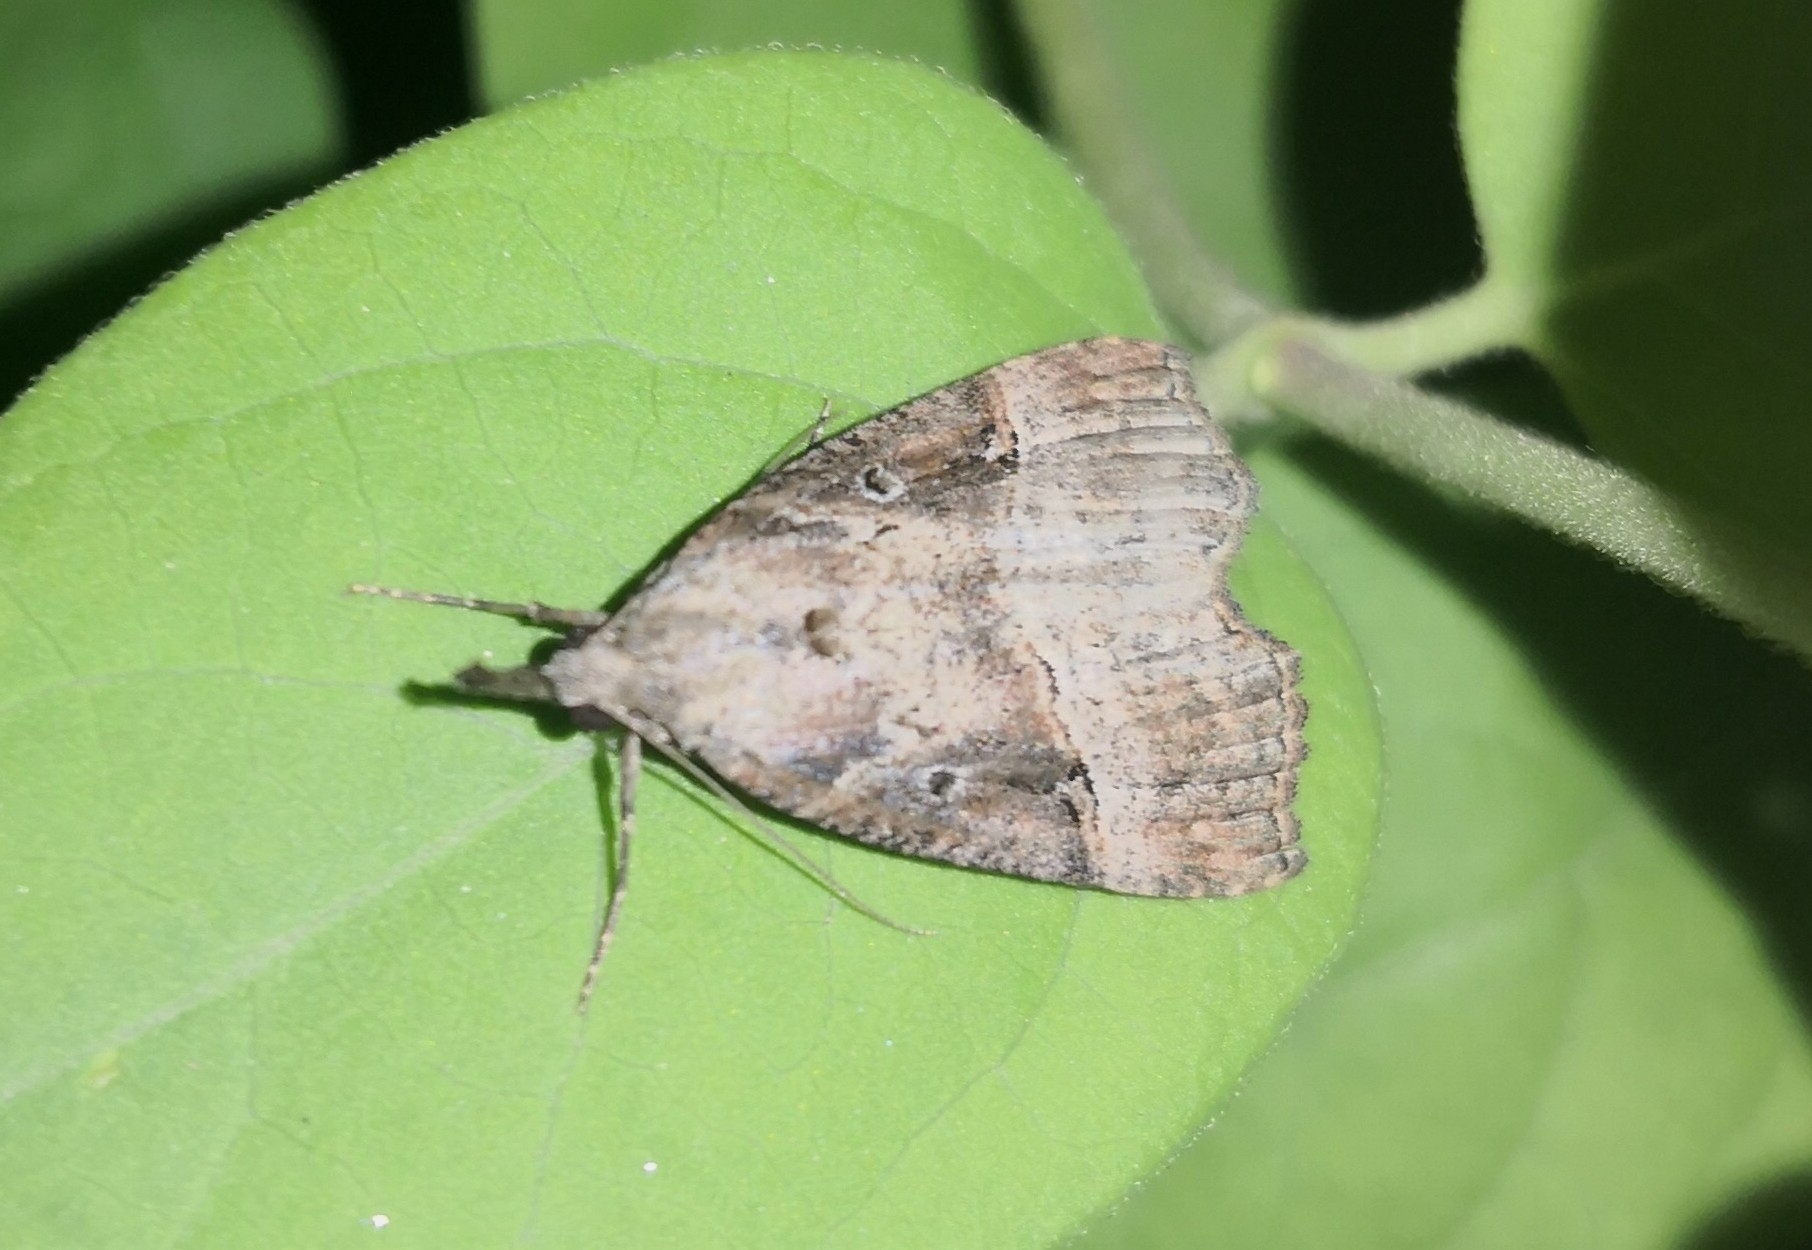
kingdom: Animalia
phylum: Arthropoda
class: Insecta
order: Lepidoptera
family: Erebidae
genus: Hypena
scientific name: Hypena rostralis
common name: Buttoned snout
